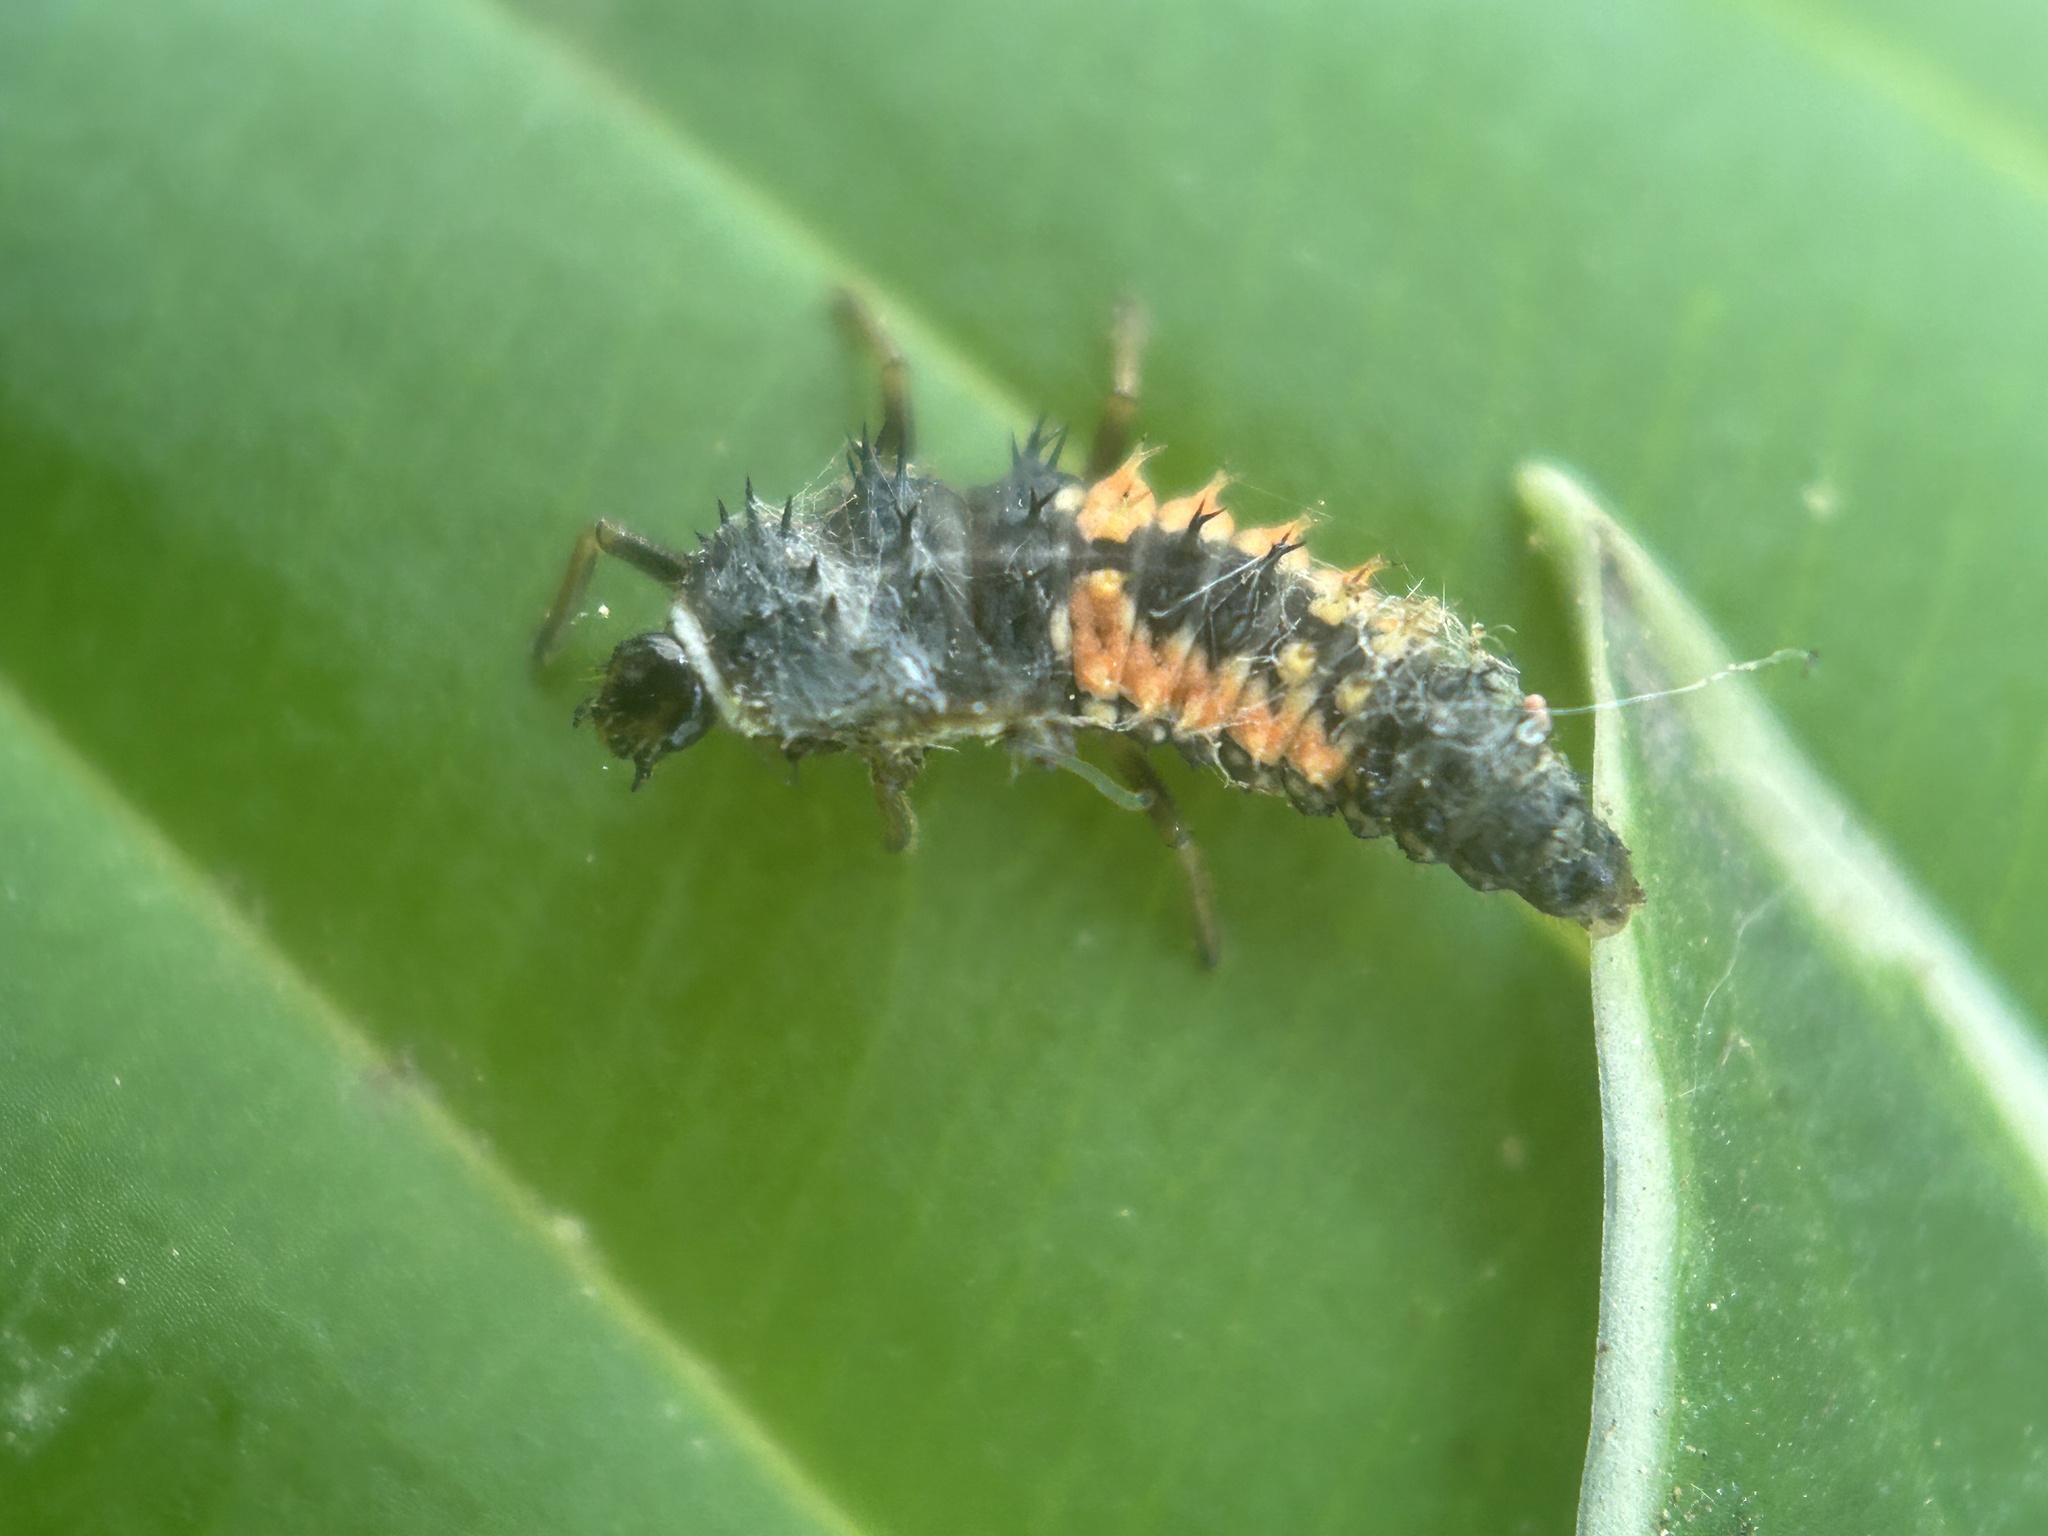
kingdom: Animalia
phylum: Arthropoda
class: Insecta
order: Coleoptera
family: Coccinellidae
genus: Harmonia
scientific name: Harmonia axyridis
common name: Harlequin ladybird
